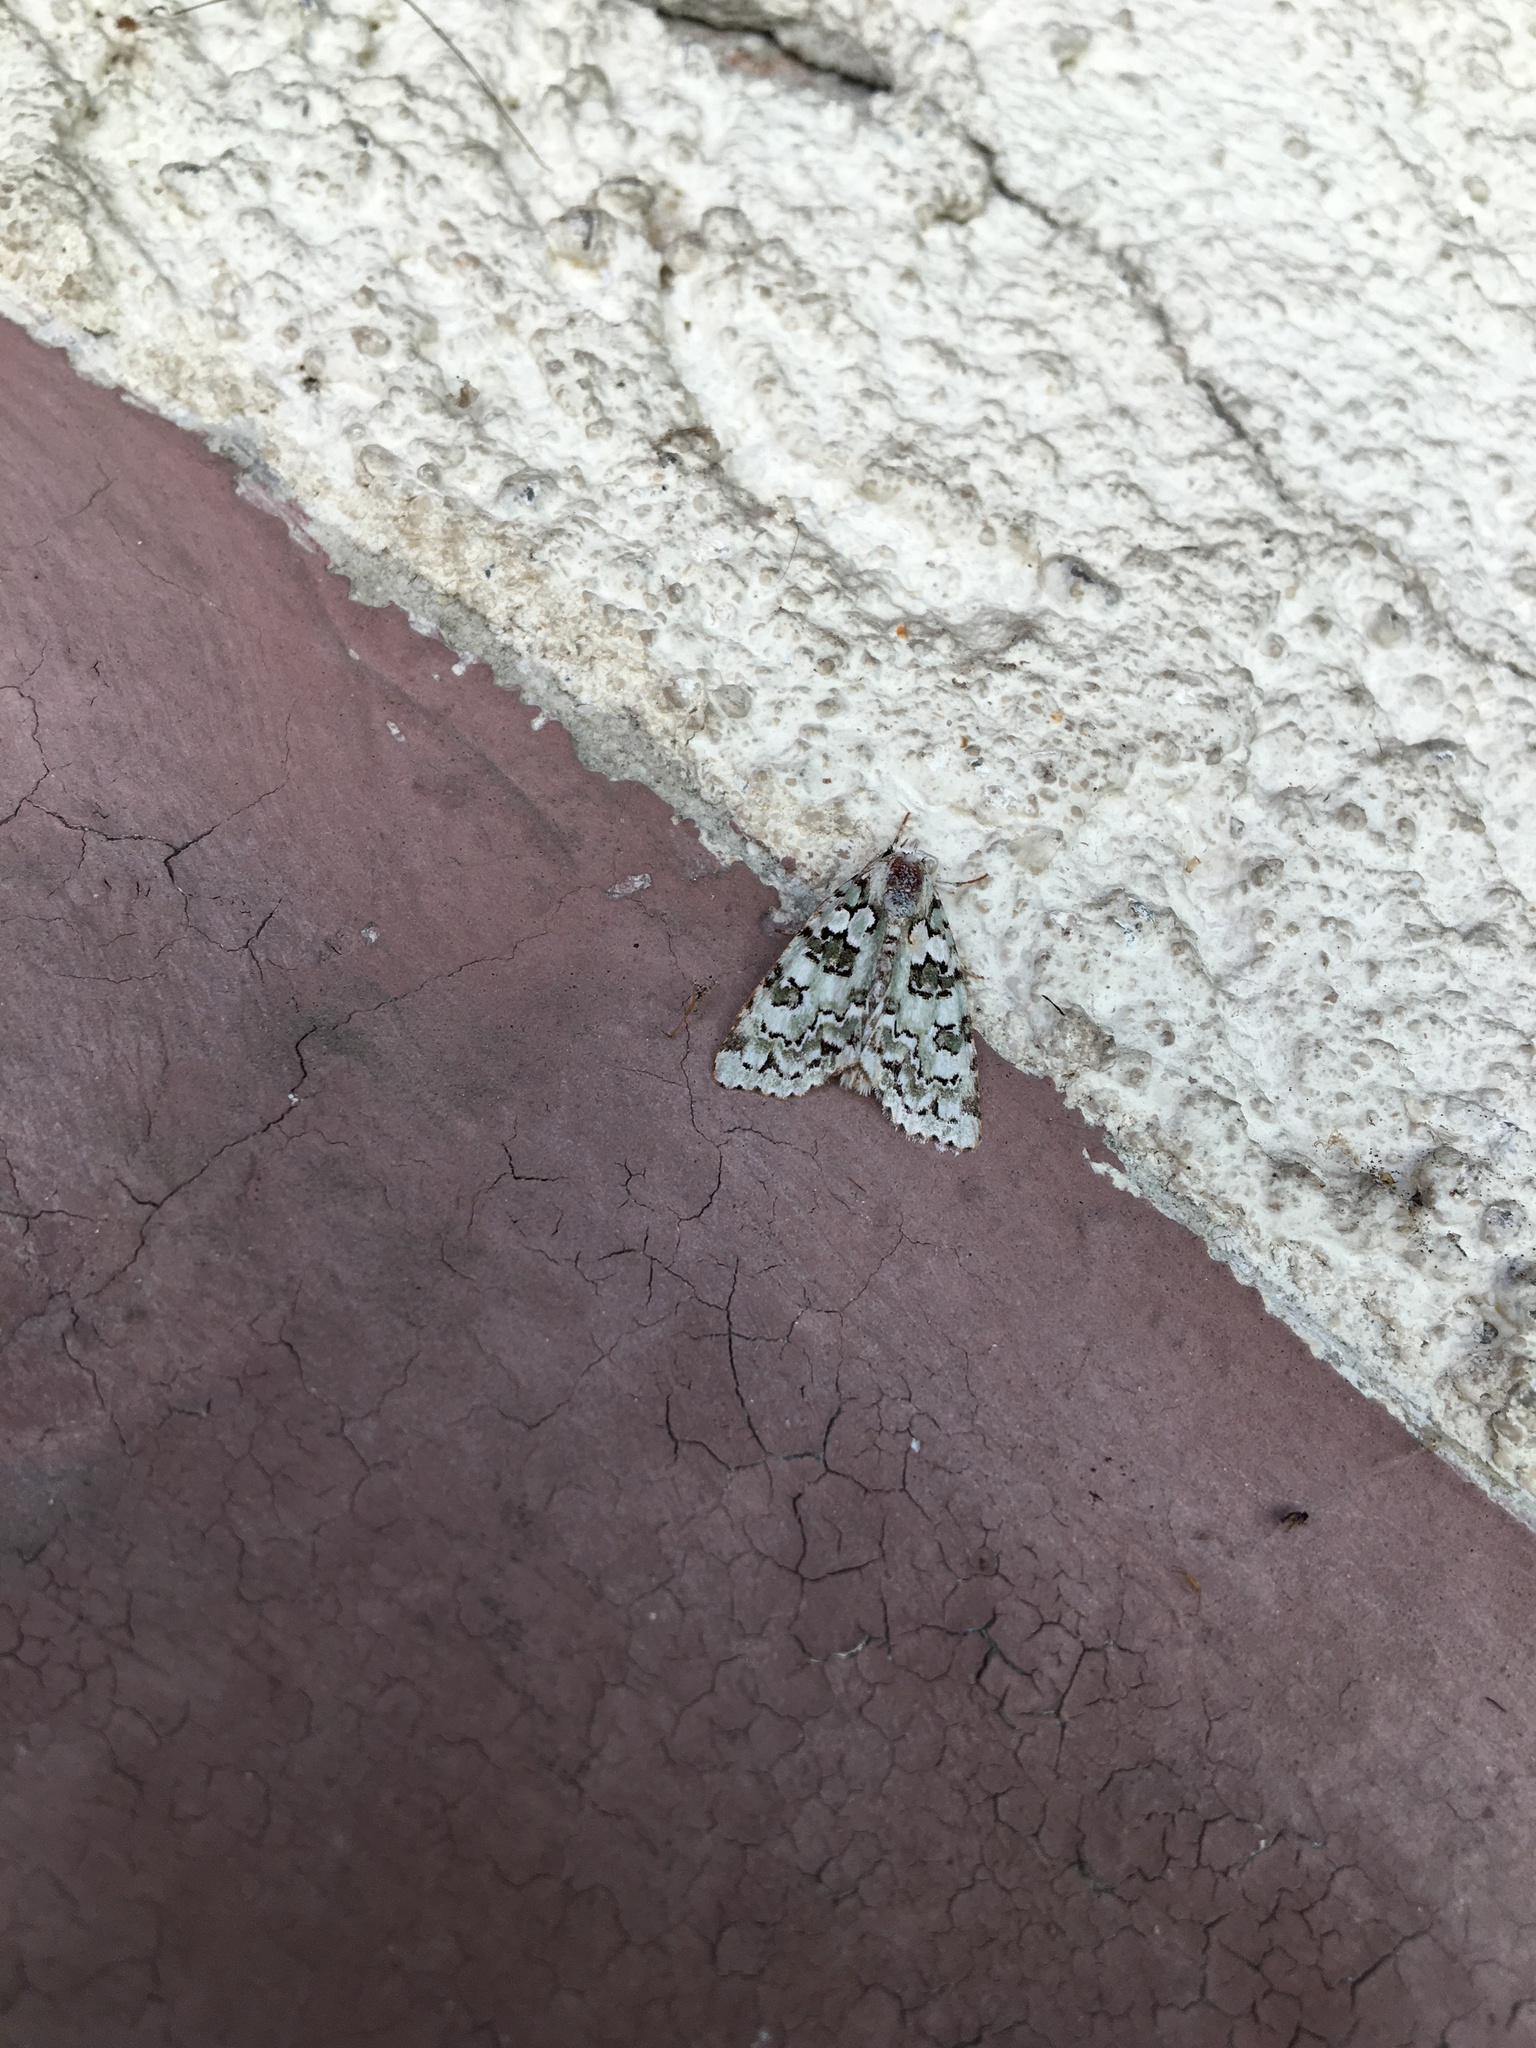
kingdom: Animalia
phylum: Arthropoda
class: Insecta
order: Lepidoptera
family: Noctuidae
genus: Nyctobrya
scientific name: Nyctobrya muralis
